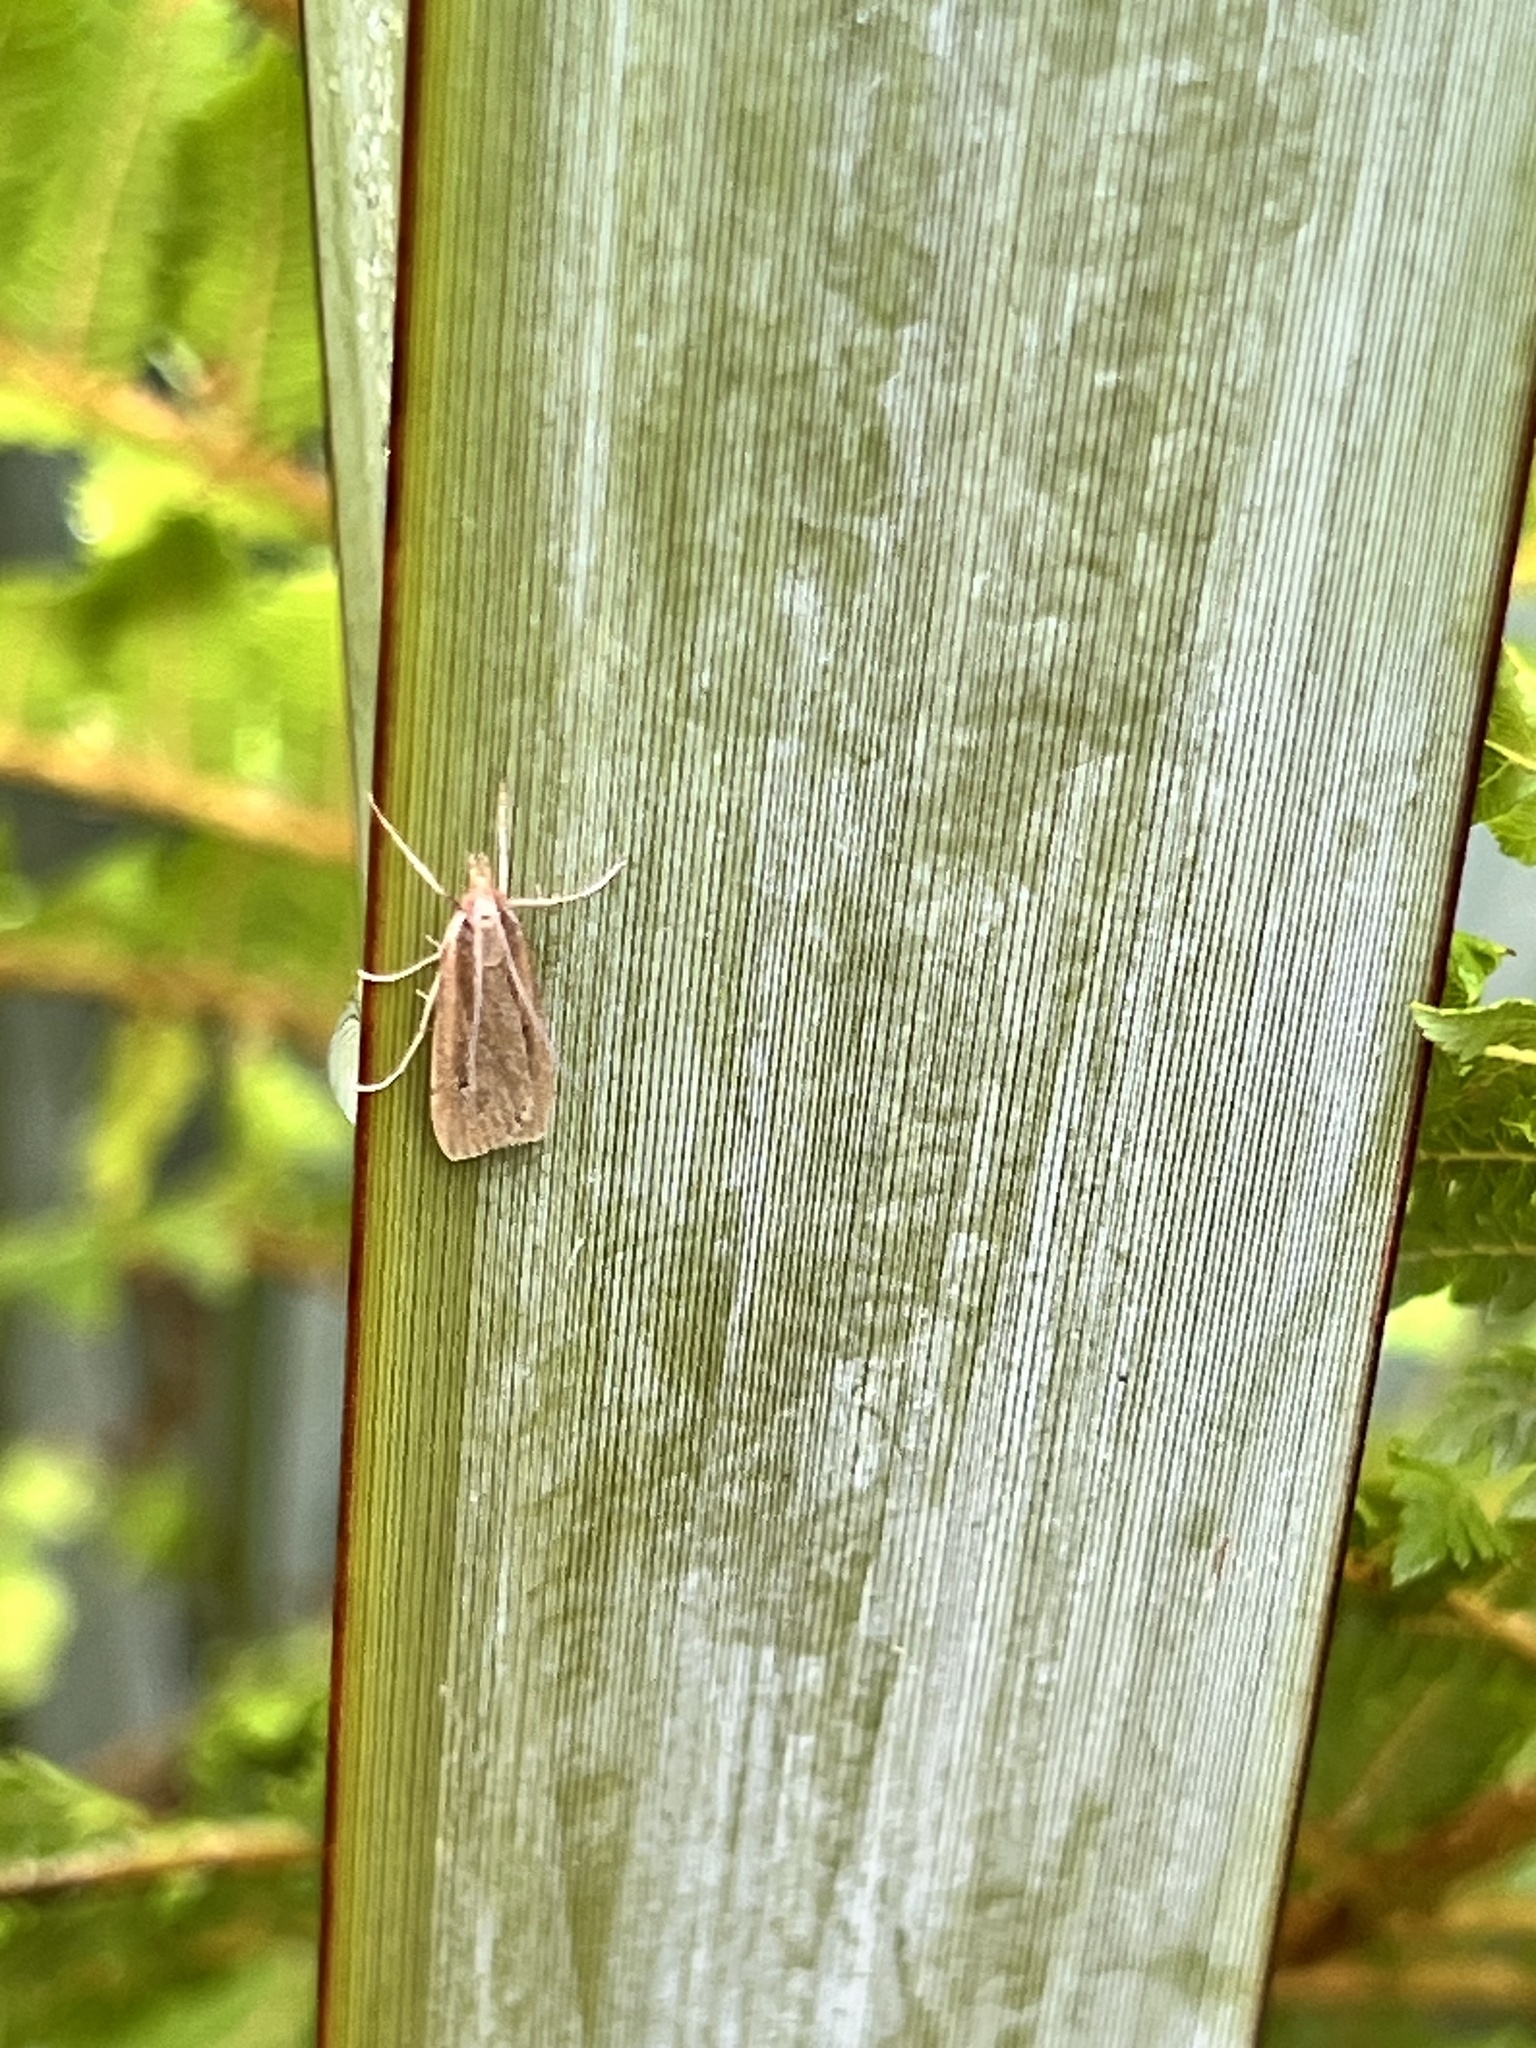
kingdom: Animalia
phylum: Arthropoda
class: Insecta
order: Lepidoptera
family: Crambidae
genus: Eudonia
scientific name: Eudonia sabulosella
